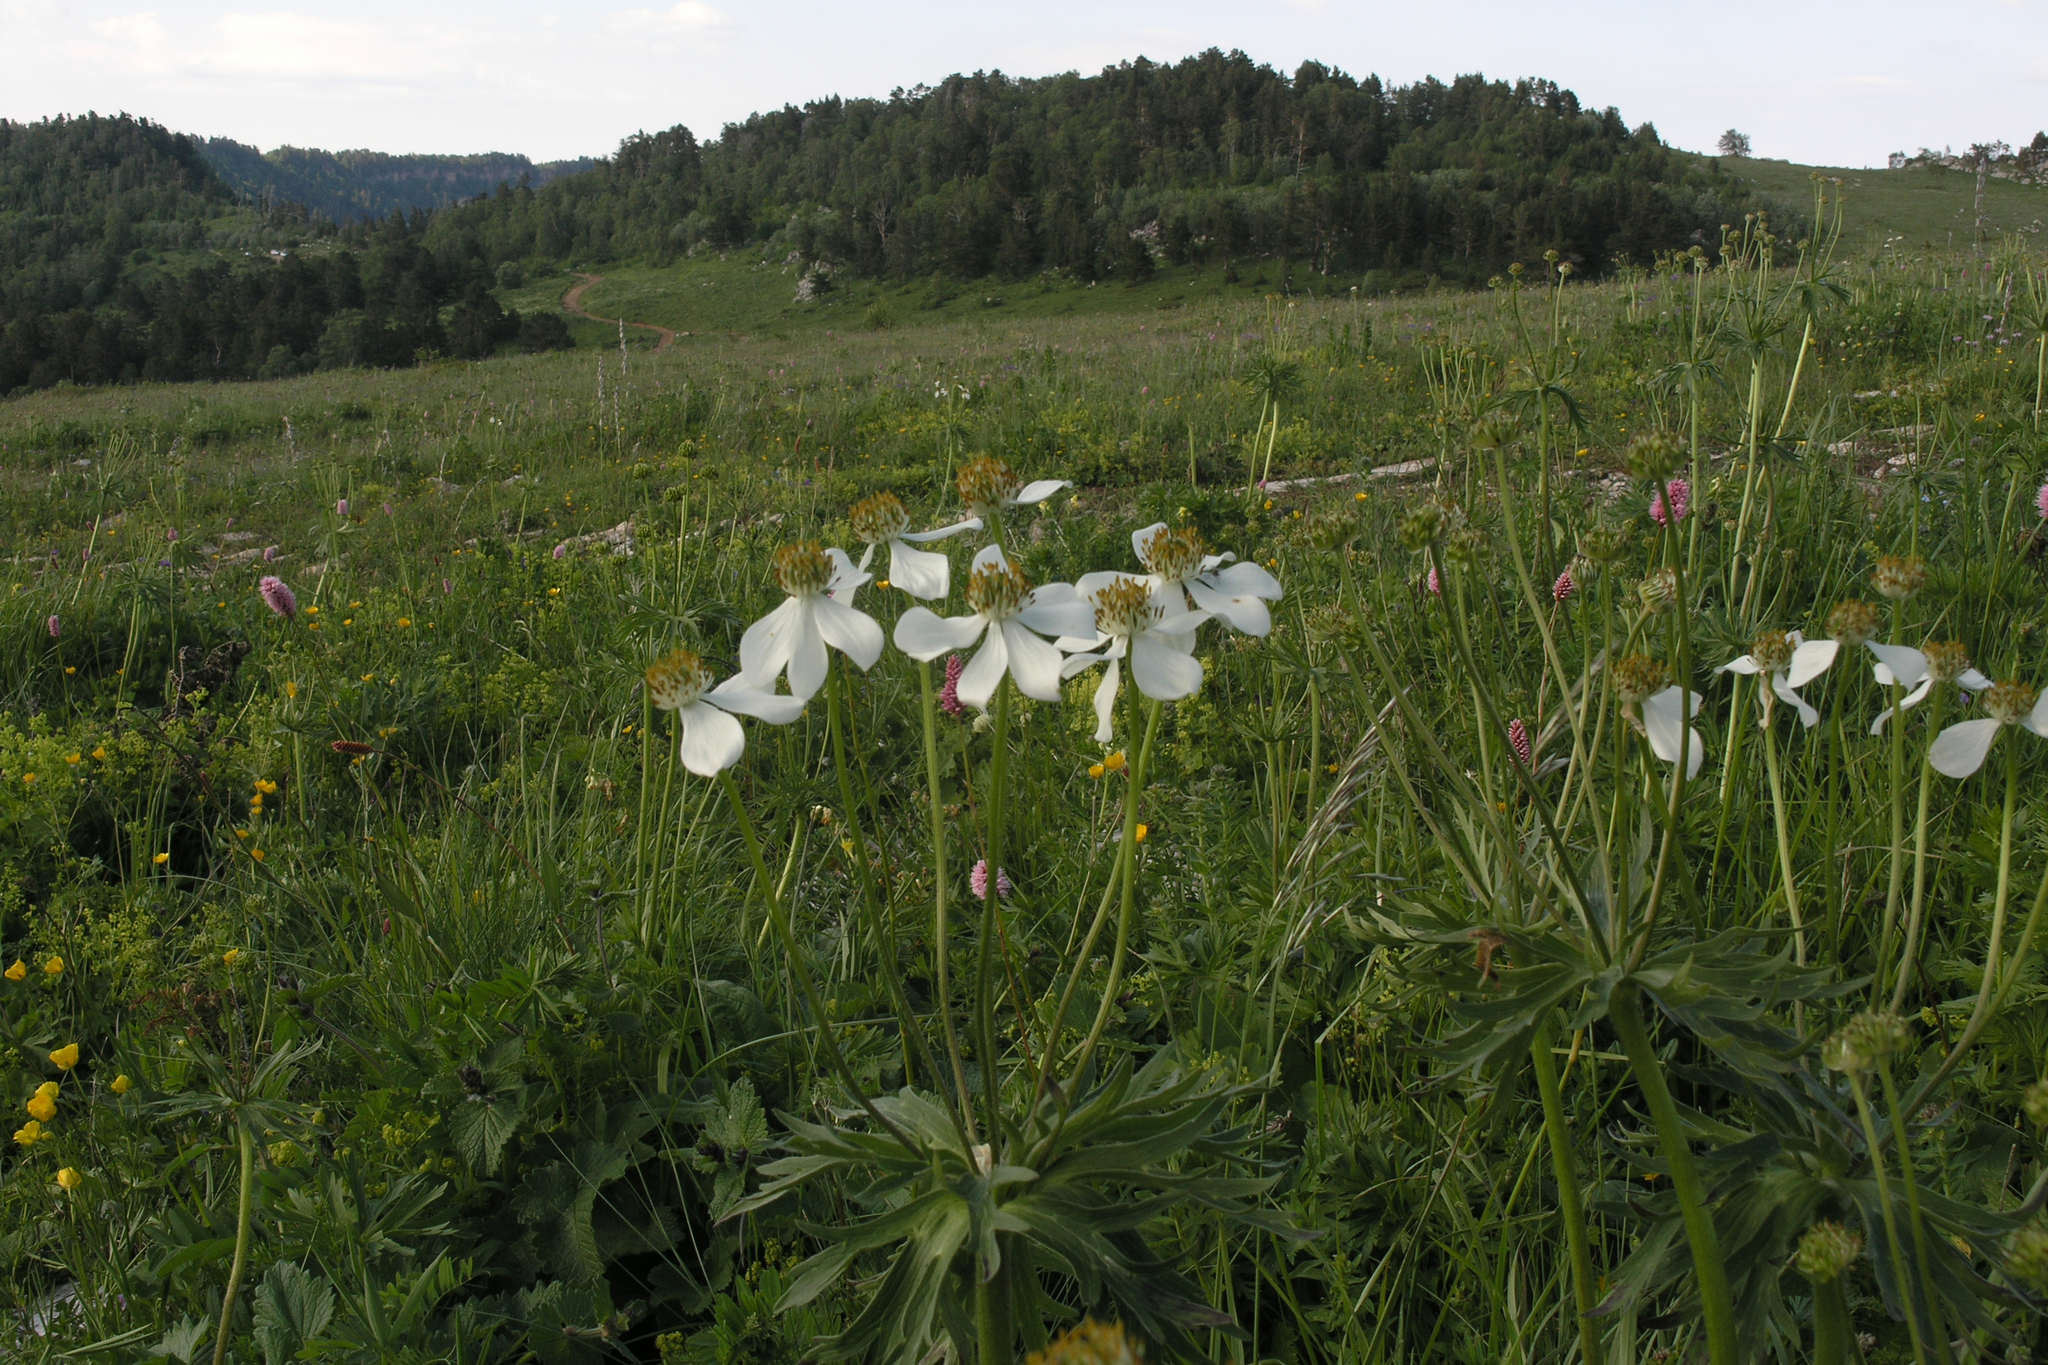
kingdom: Plantae
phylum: Tracheophyta
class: Magnoliopsida
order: Ranunculales
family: Ranunculaceae
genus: Anemonastrum
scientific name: Anemonastrum narcissiflorum
